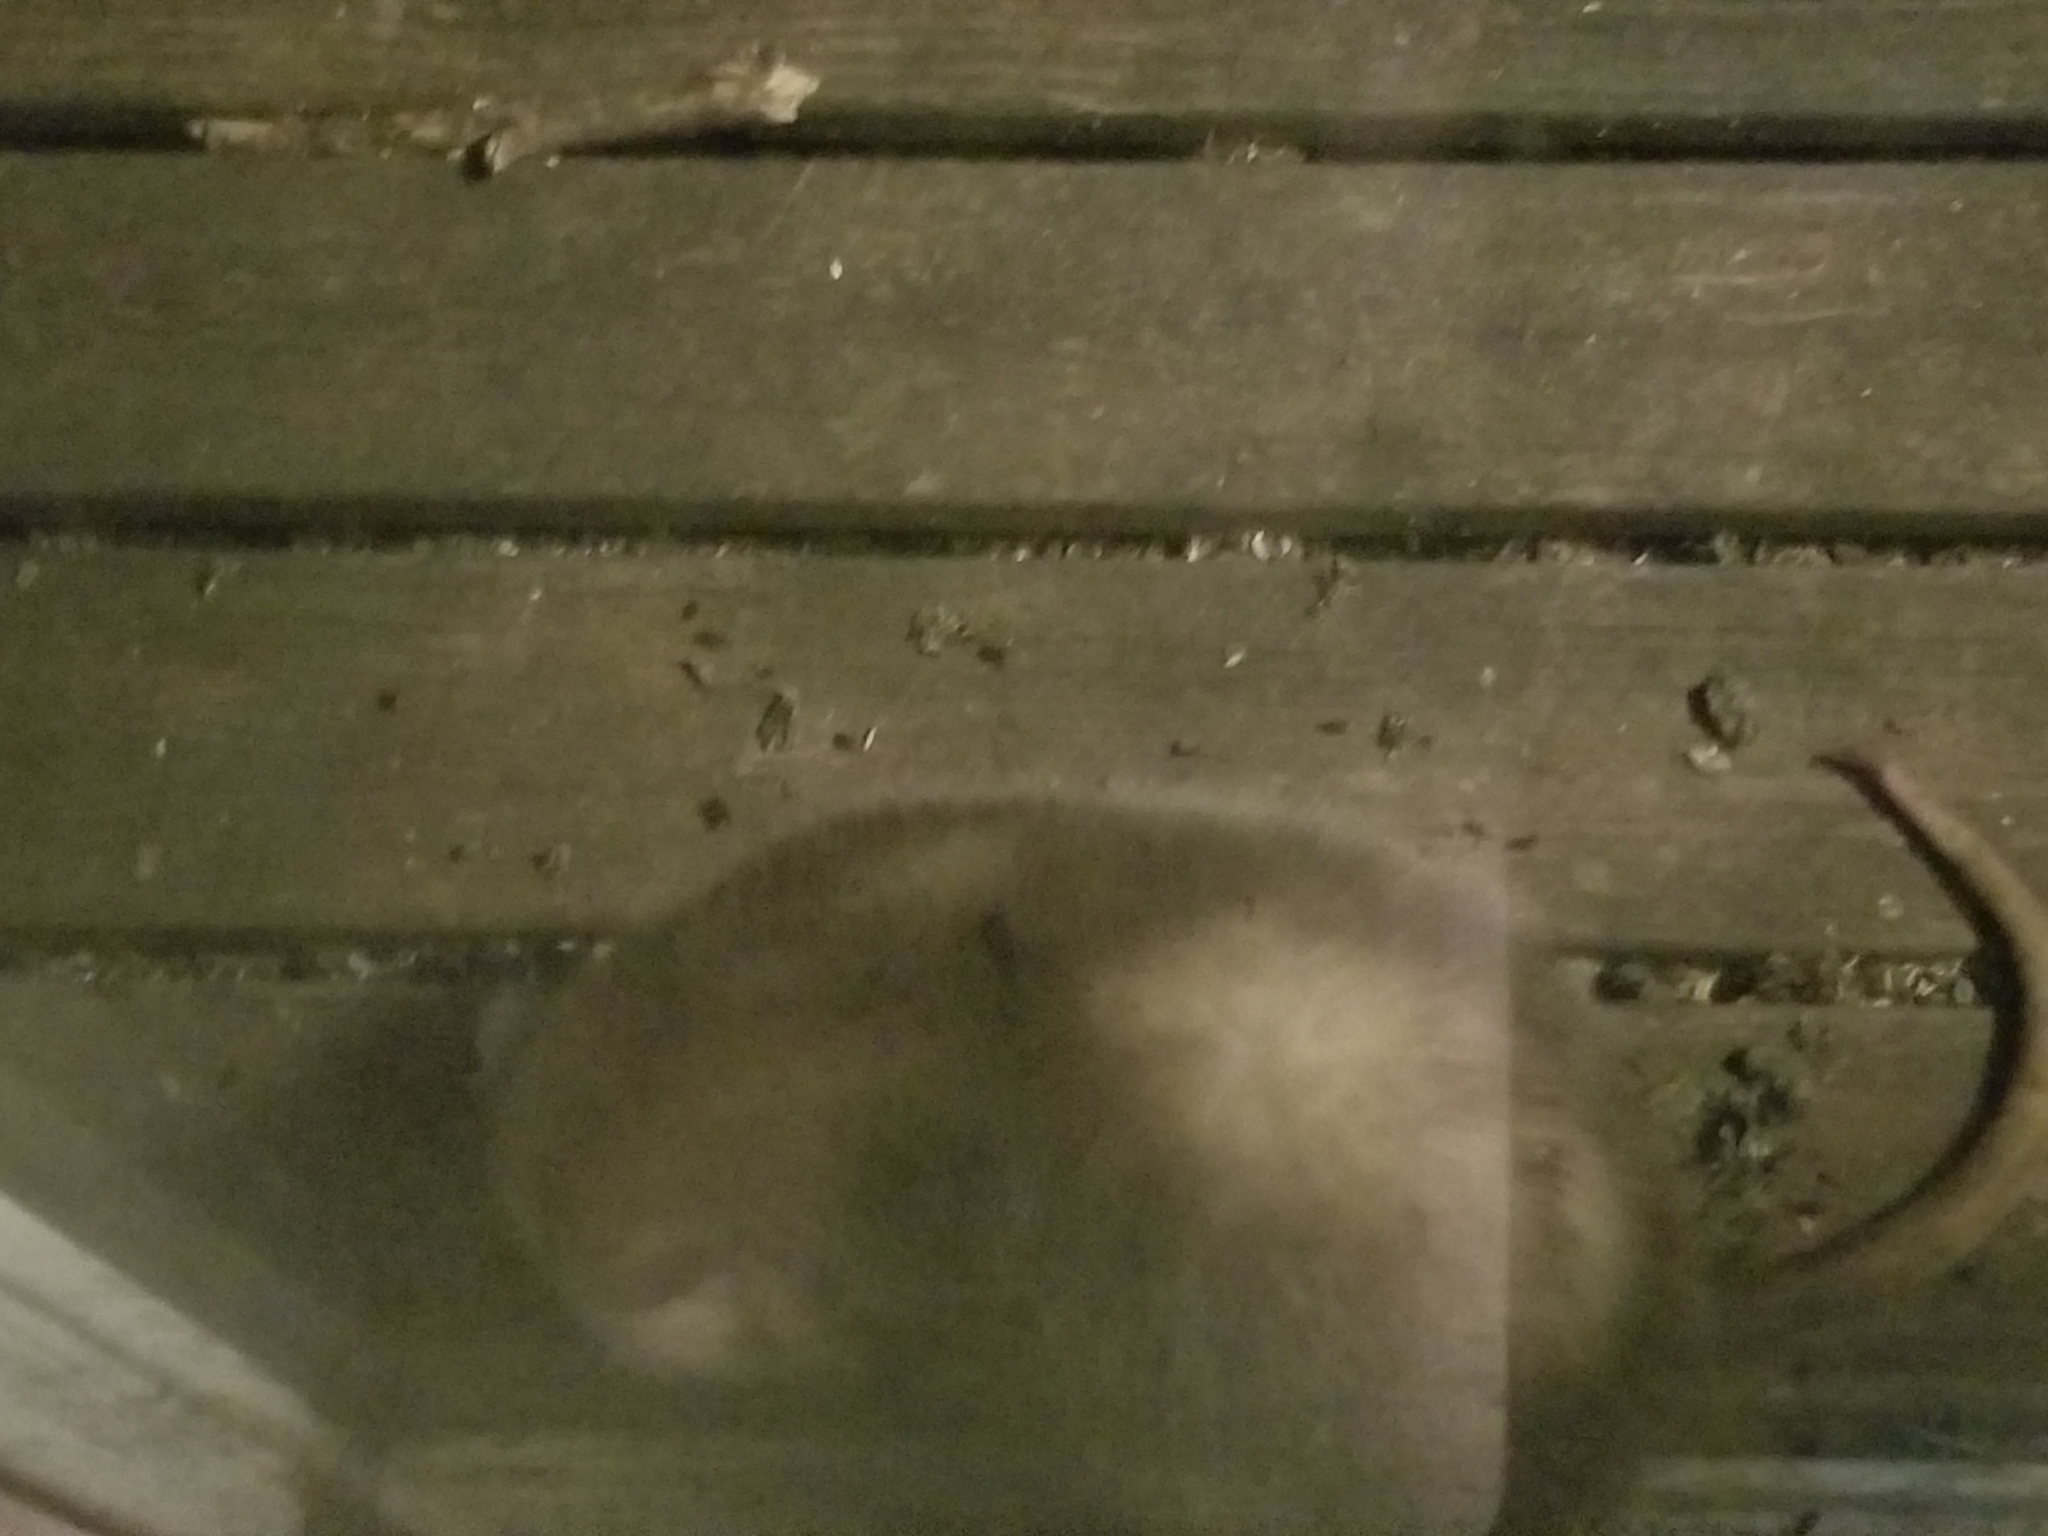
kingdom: Animalia
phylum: Chordata
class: Mammalia
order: Didelphimorphia
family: Didelphidae
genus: Didelphis
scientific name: Didelphis virginiana
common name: Virginia opossum
